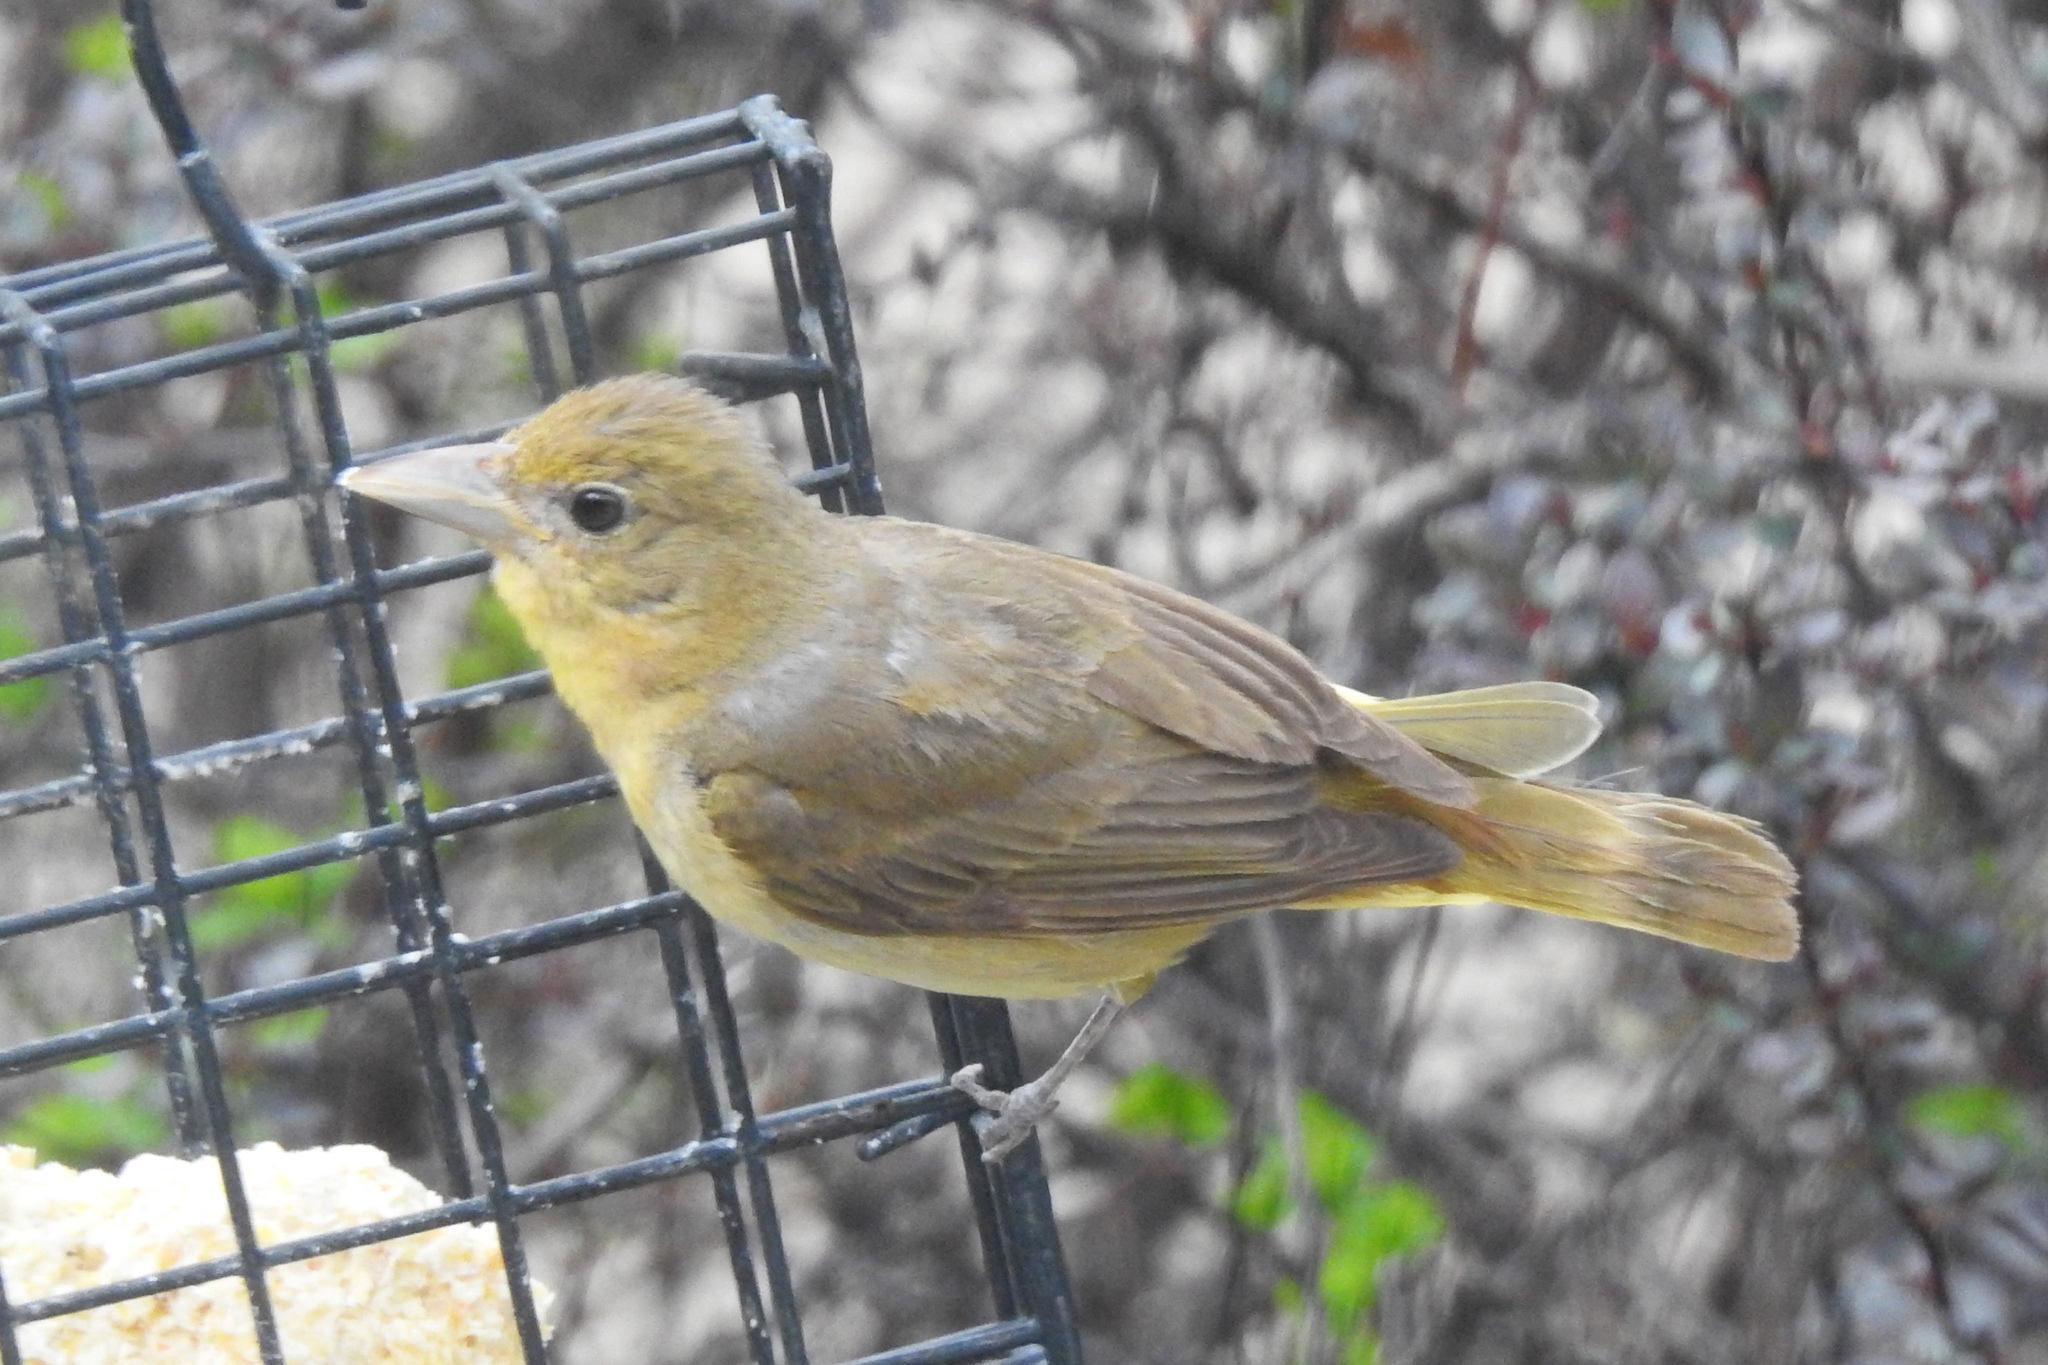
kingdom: Animalia
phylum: Chordata
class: Aves
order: Passeriformes
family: Cardinalidae
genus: Piranga
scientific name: Piranga rubra
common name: Summer tanager
